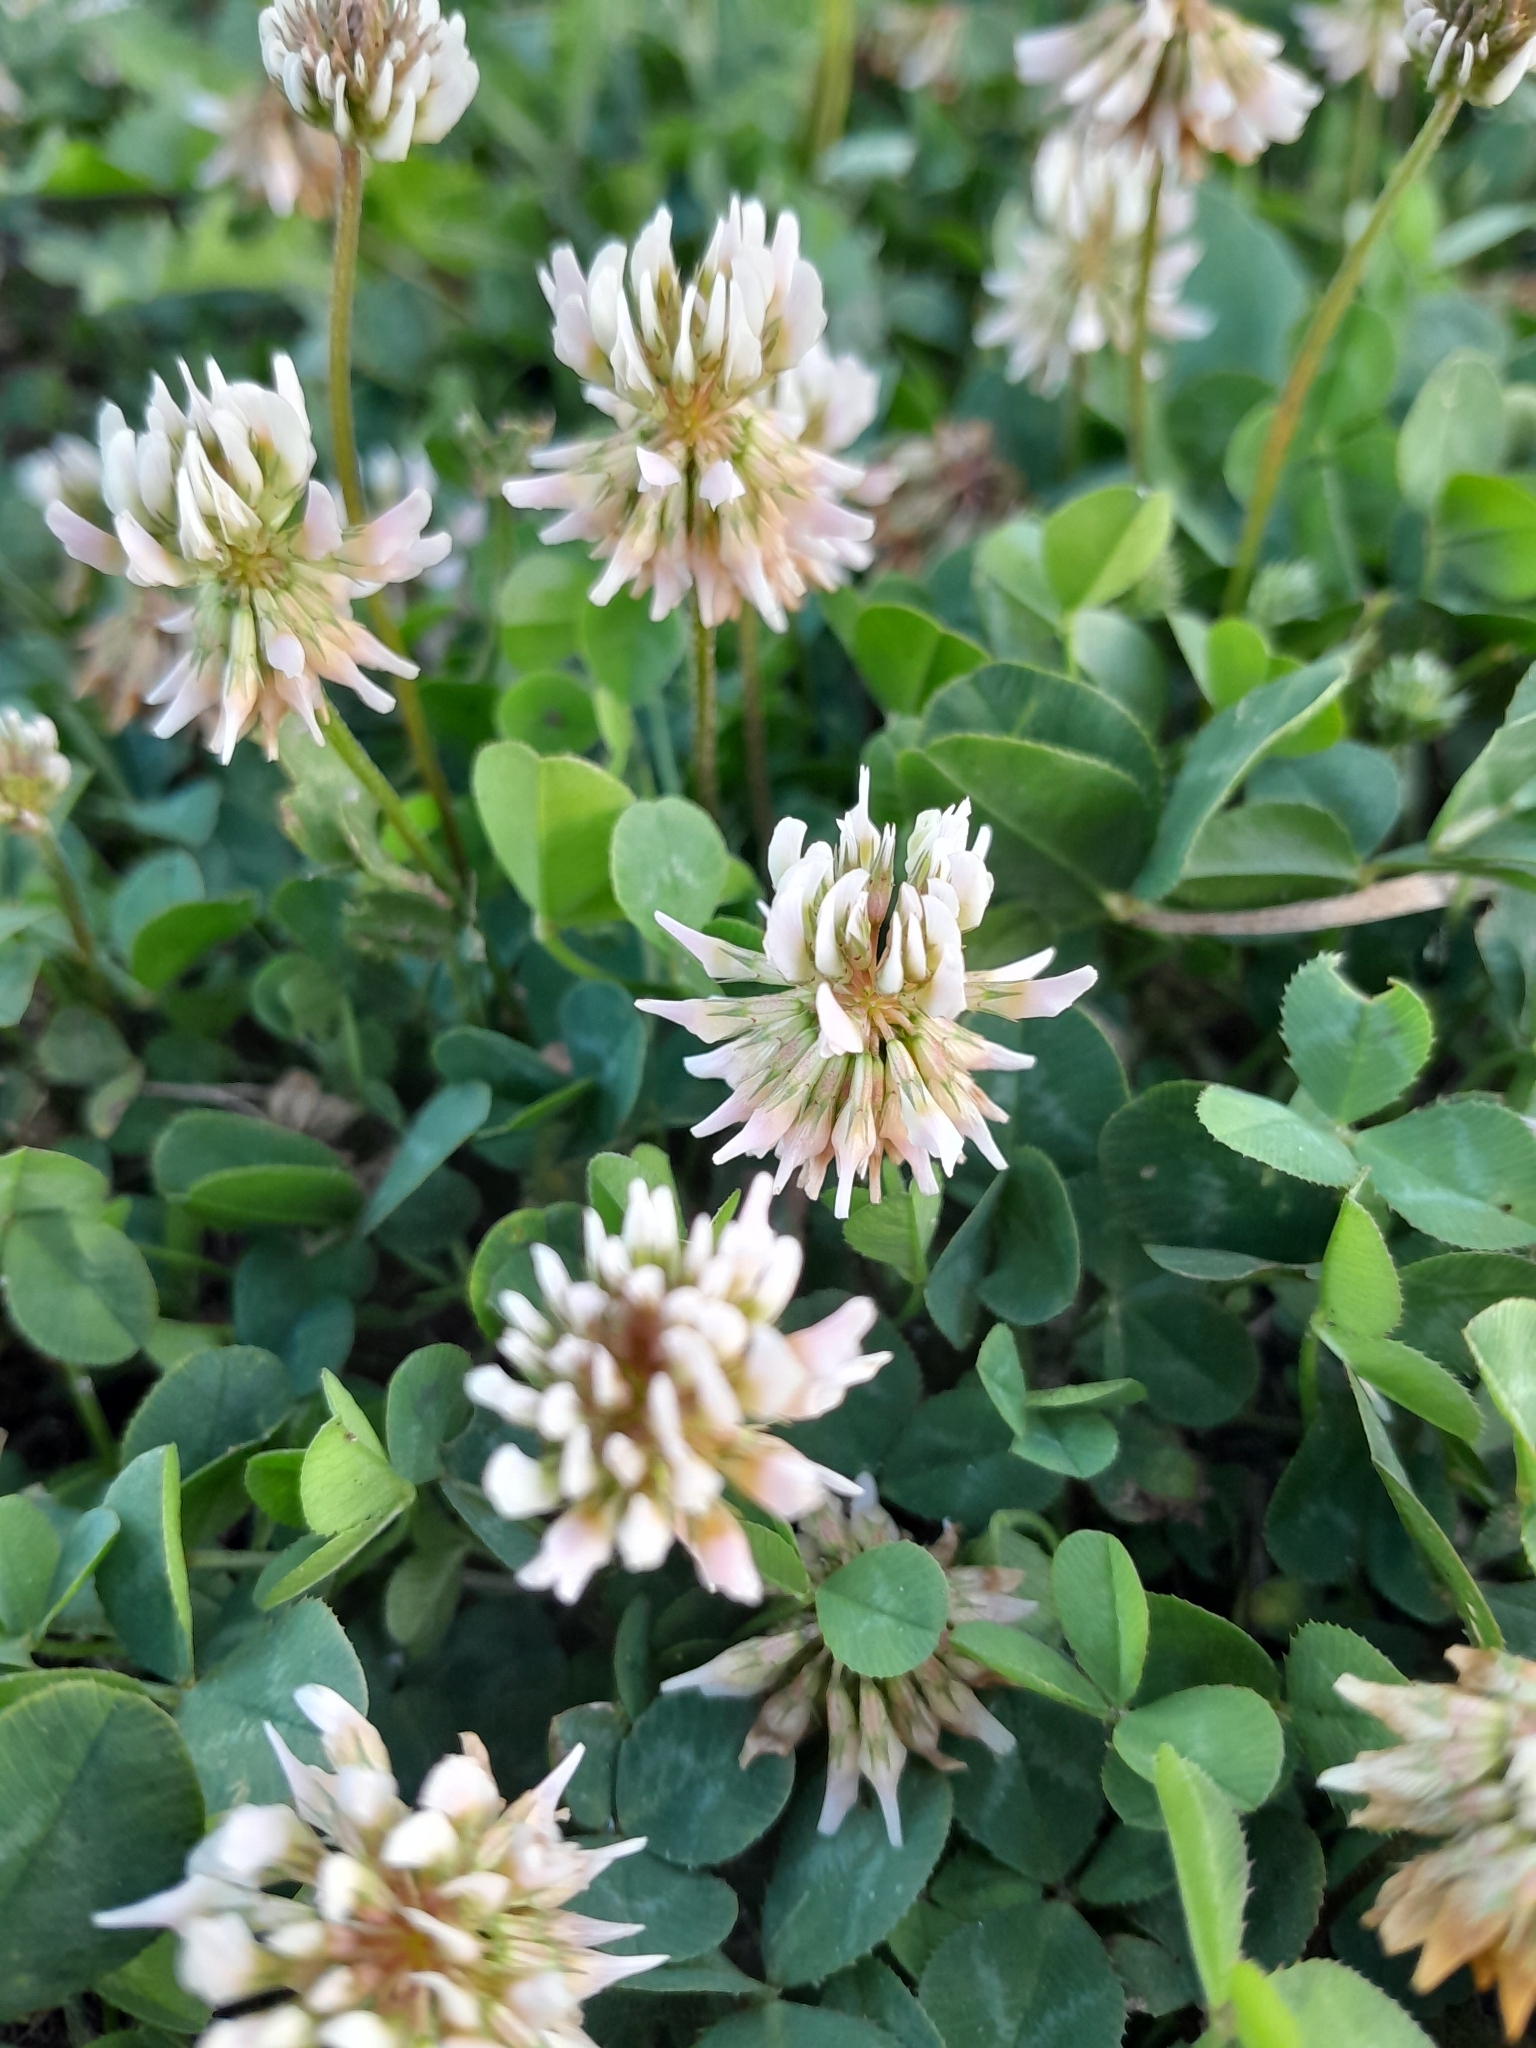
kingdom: Plantae
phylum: Tracheophyta
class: Magnoliopsida
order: Fabales
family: Fabaceae
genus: Trifolium
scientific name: Trifolium repens
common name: White clover
